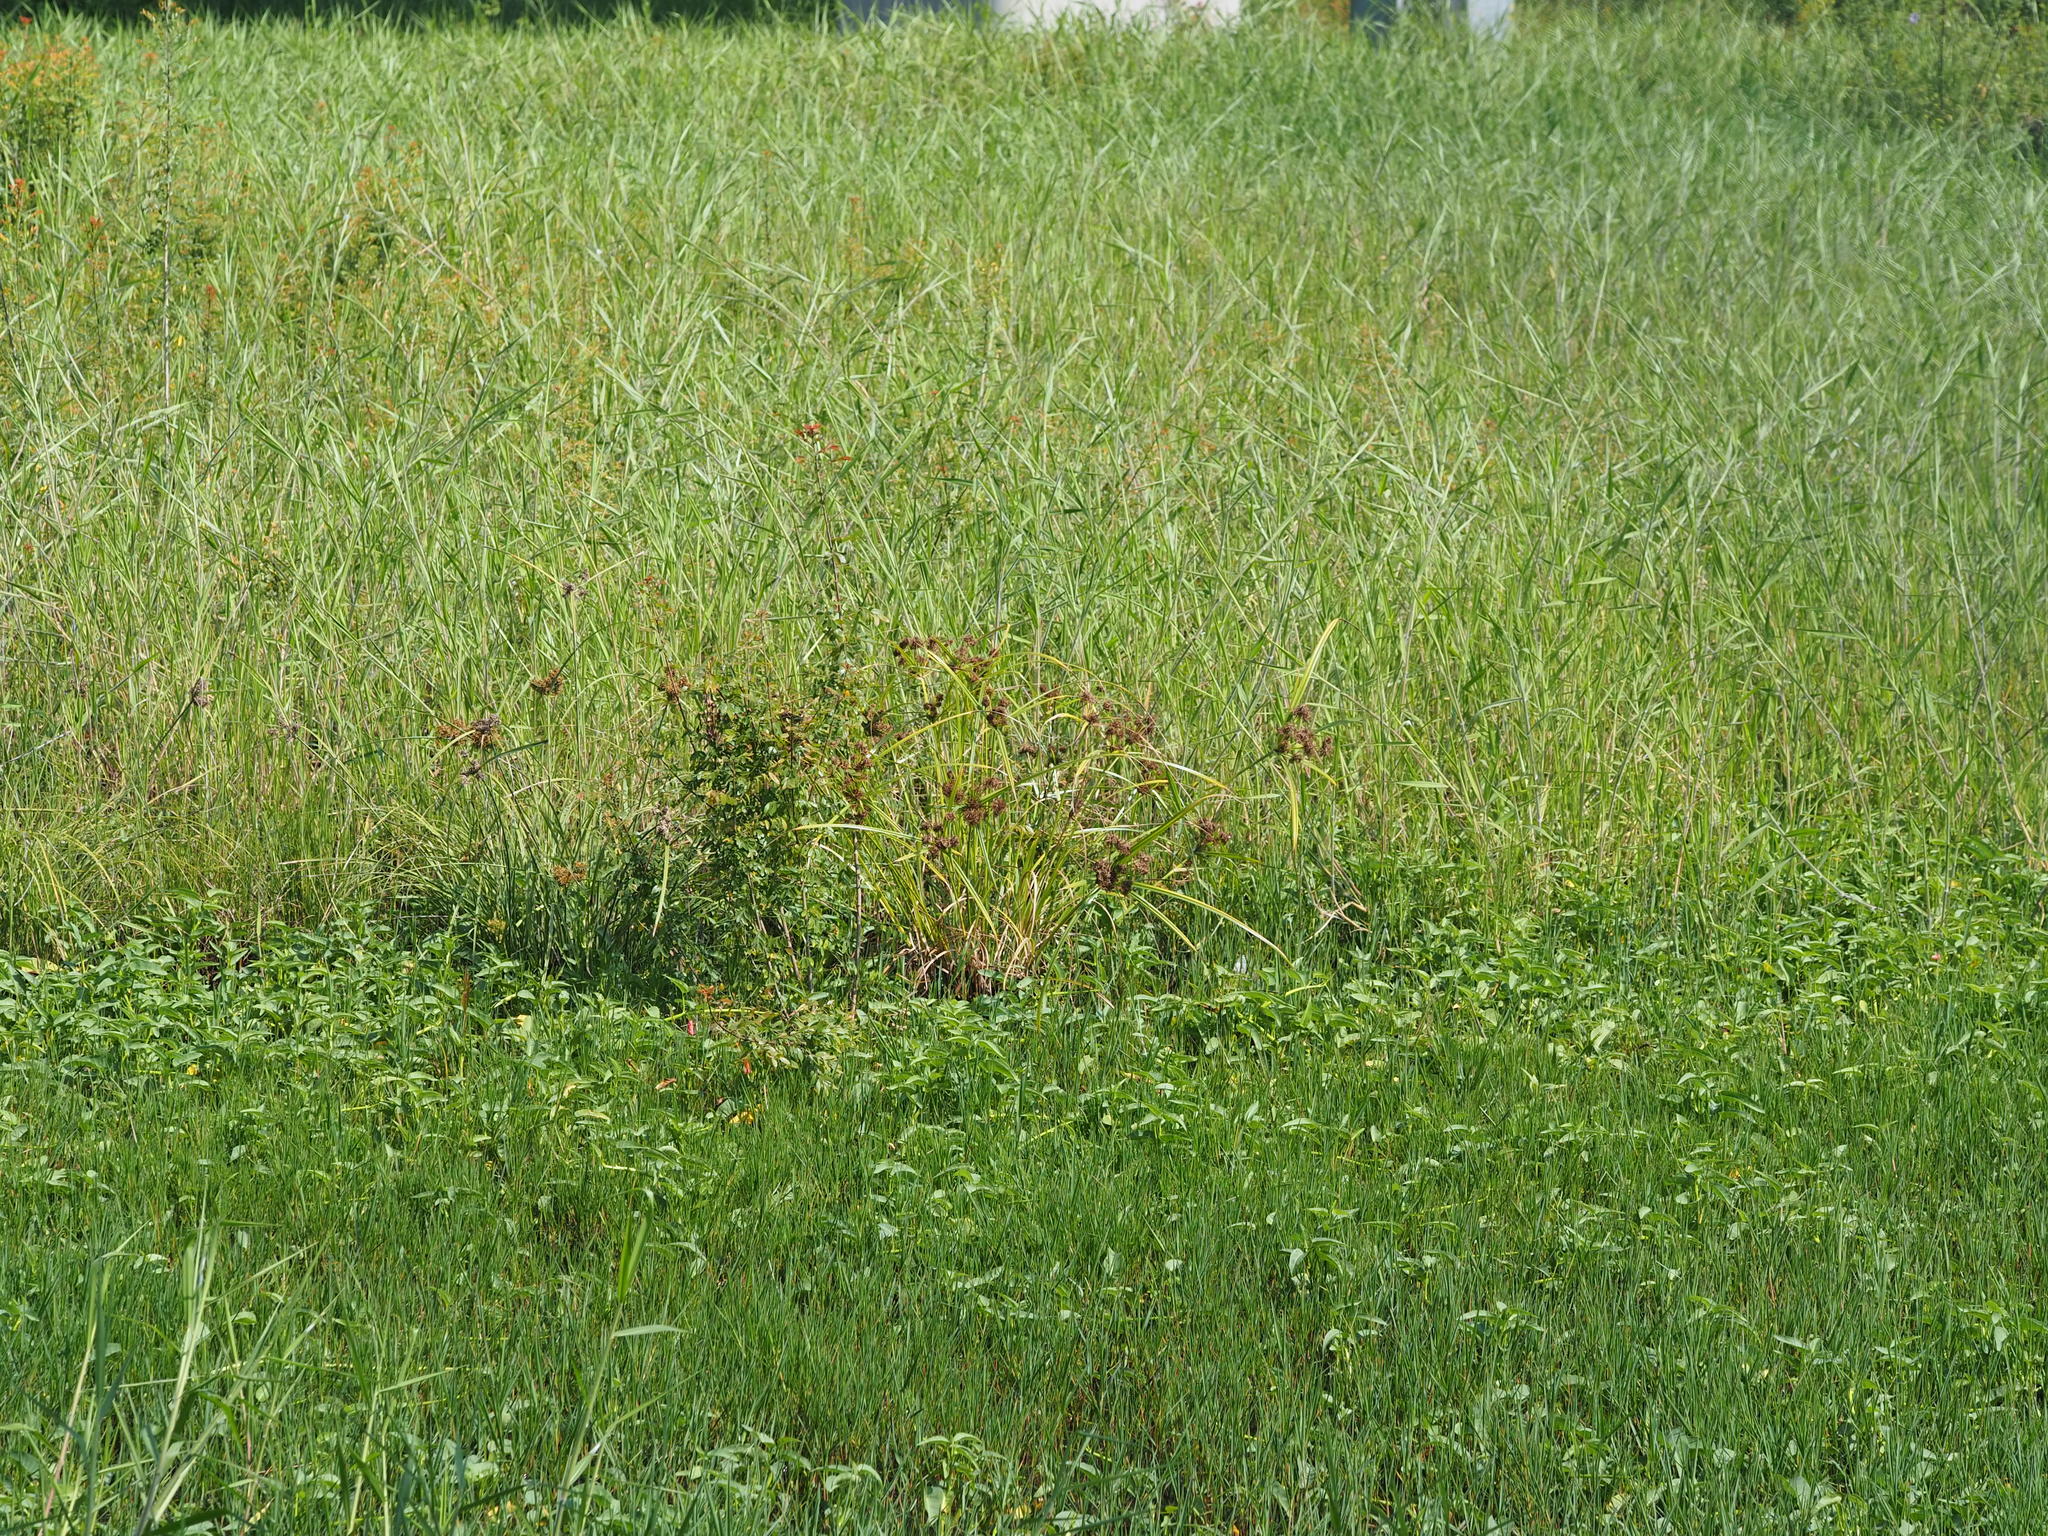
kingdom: Plantae
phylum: Tracheophyta
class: Liliopsida
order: Poales
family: Cyperaceae
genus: Cyperus
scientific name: Cyperus odoratus
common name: Fragrant flatsedge
